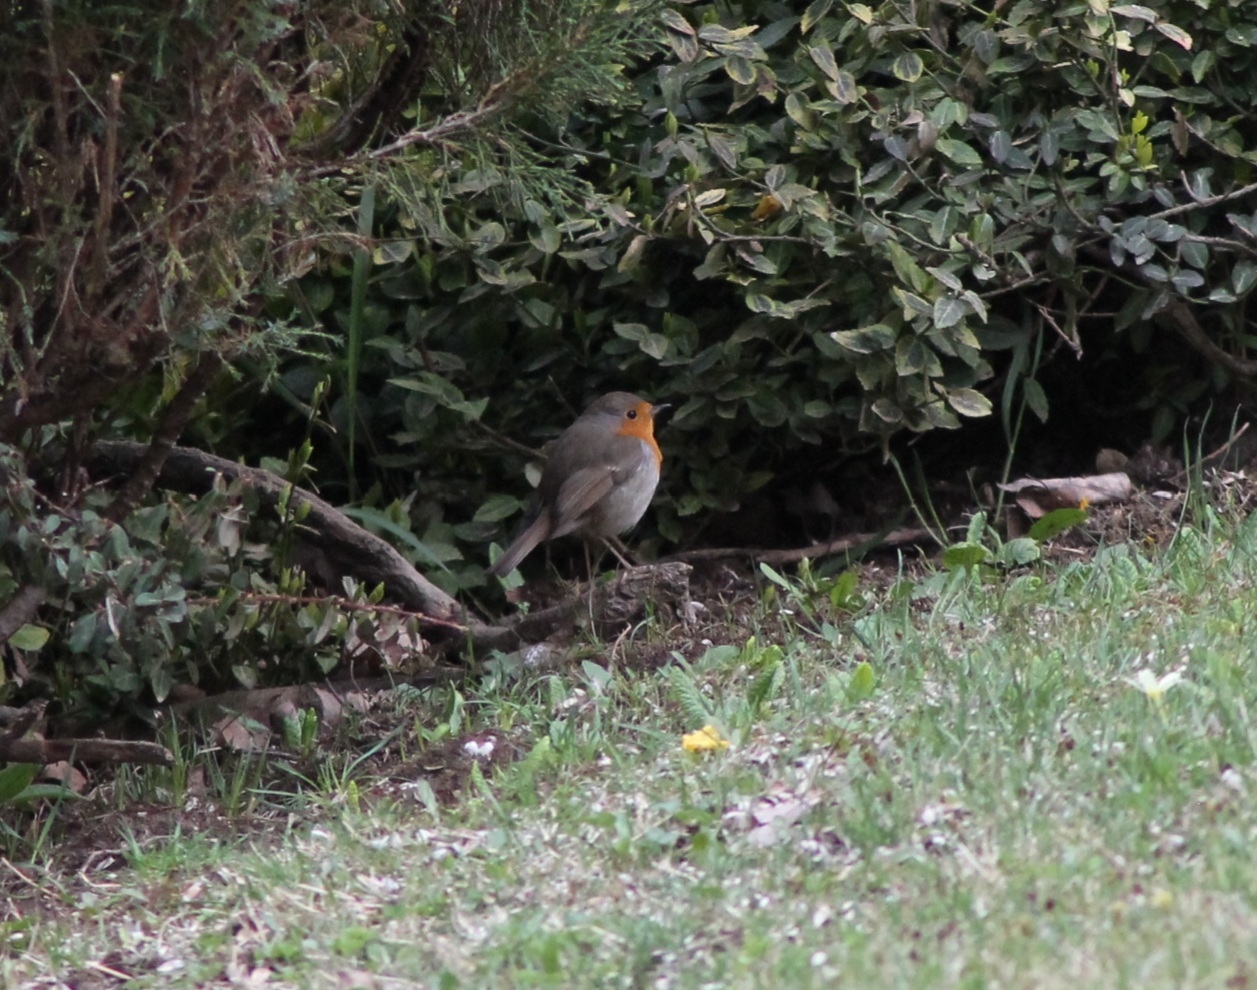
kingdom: Animalia
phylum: Chordata
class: Aves
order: Passeriformes
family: Muscicapidae
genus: Erithacus
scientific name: Erithacus rubecula
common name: European robin
